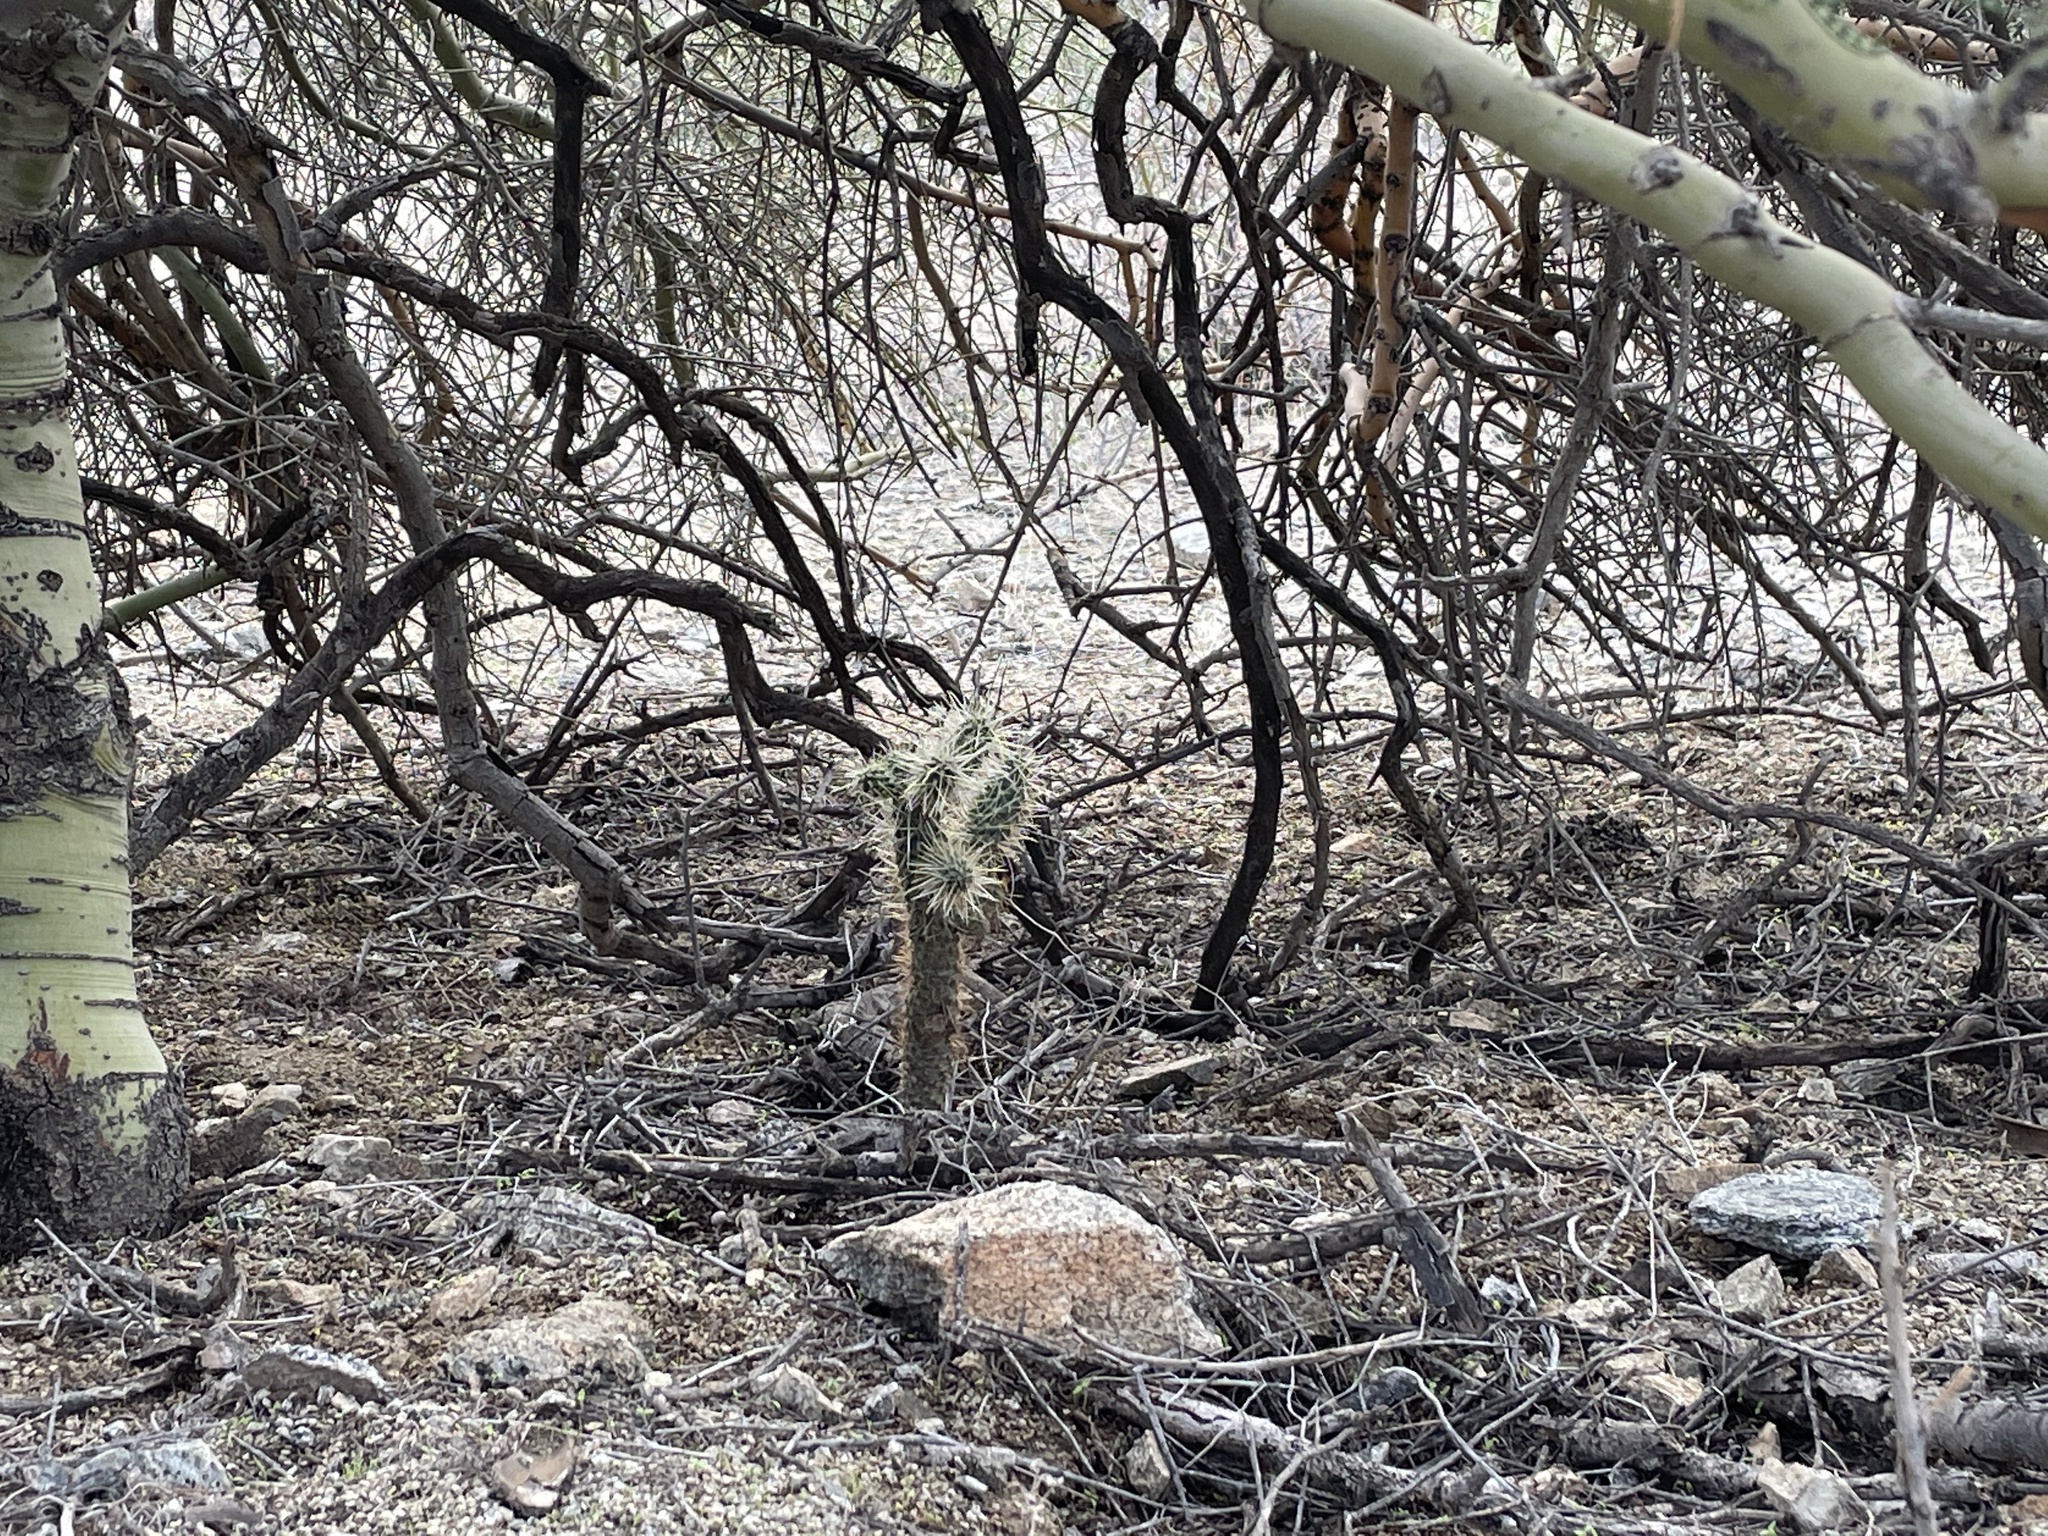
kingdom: Plantae
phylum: Tracheophyta
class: Magnoliopsida
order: Caryophyllales
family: Cactaceae
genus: Cylindropuntia
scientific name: Cylindropuntia fulgida
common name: Jumping cholla
